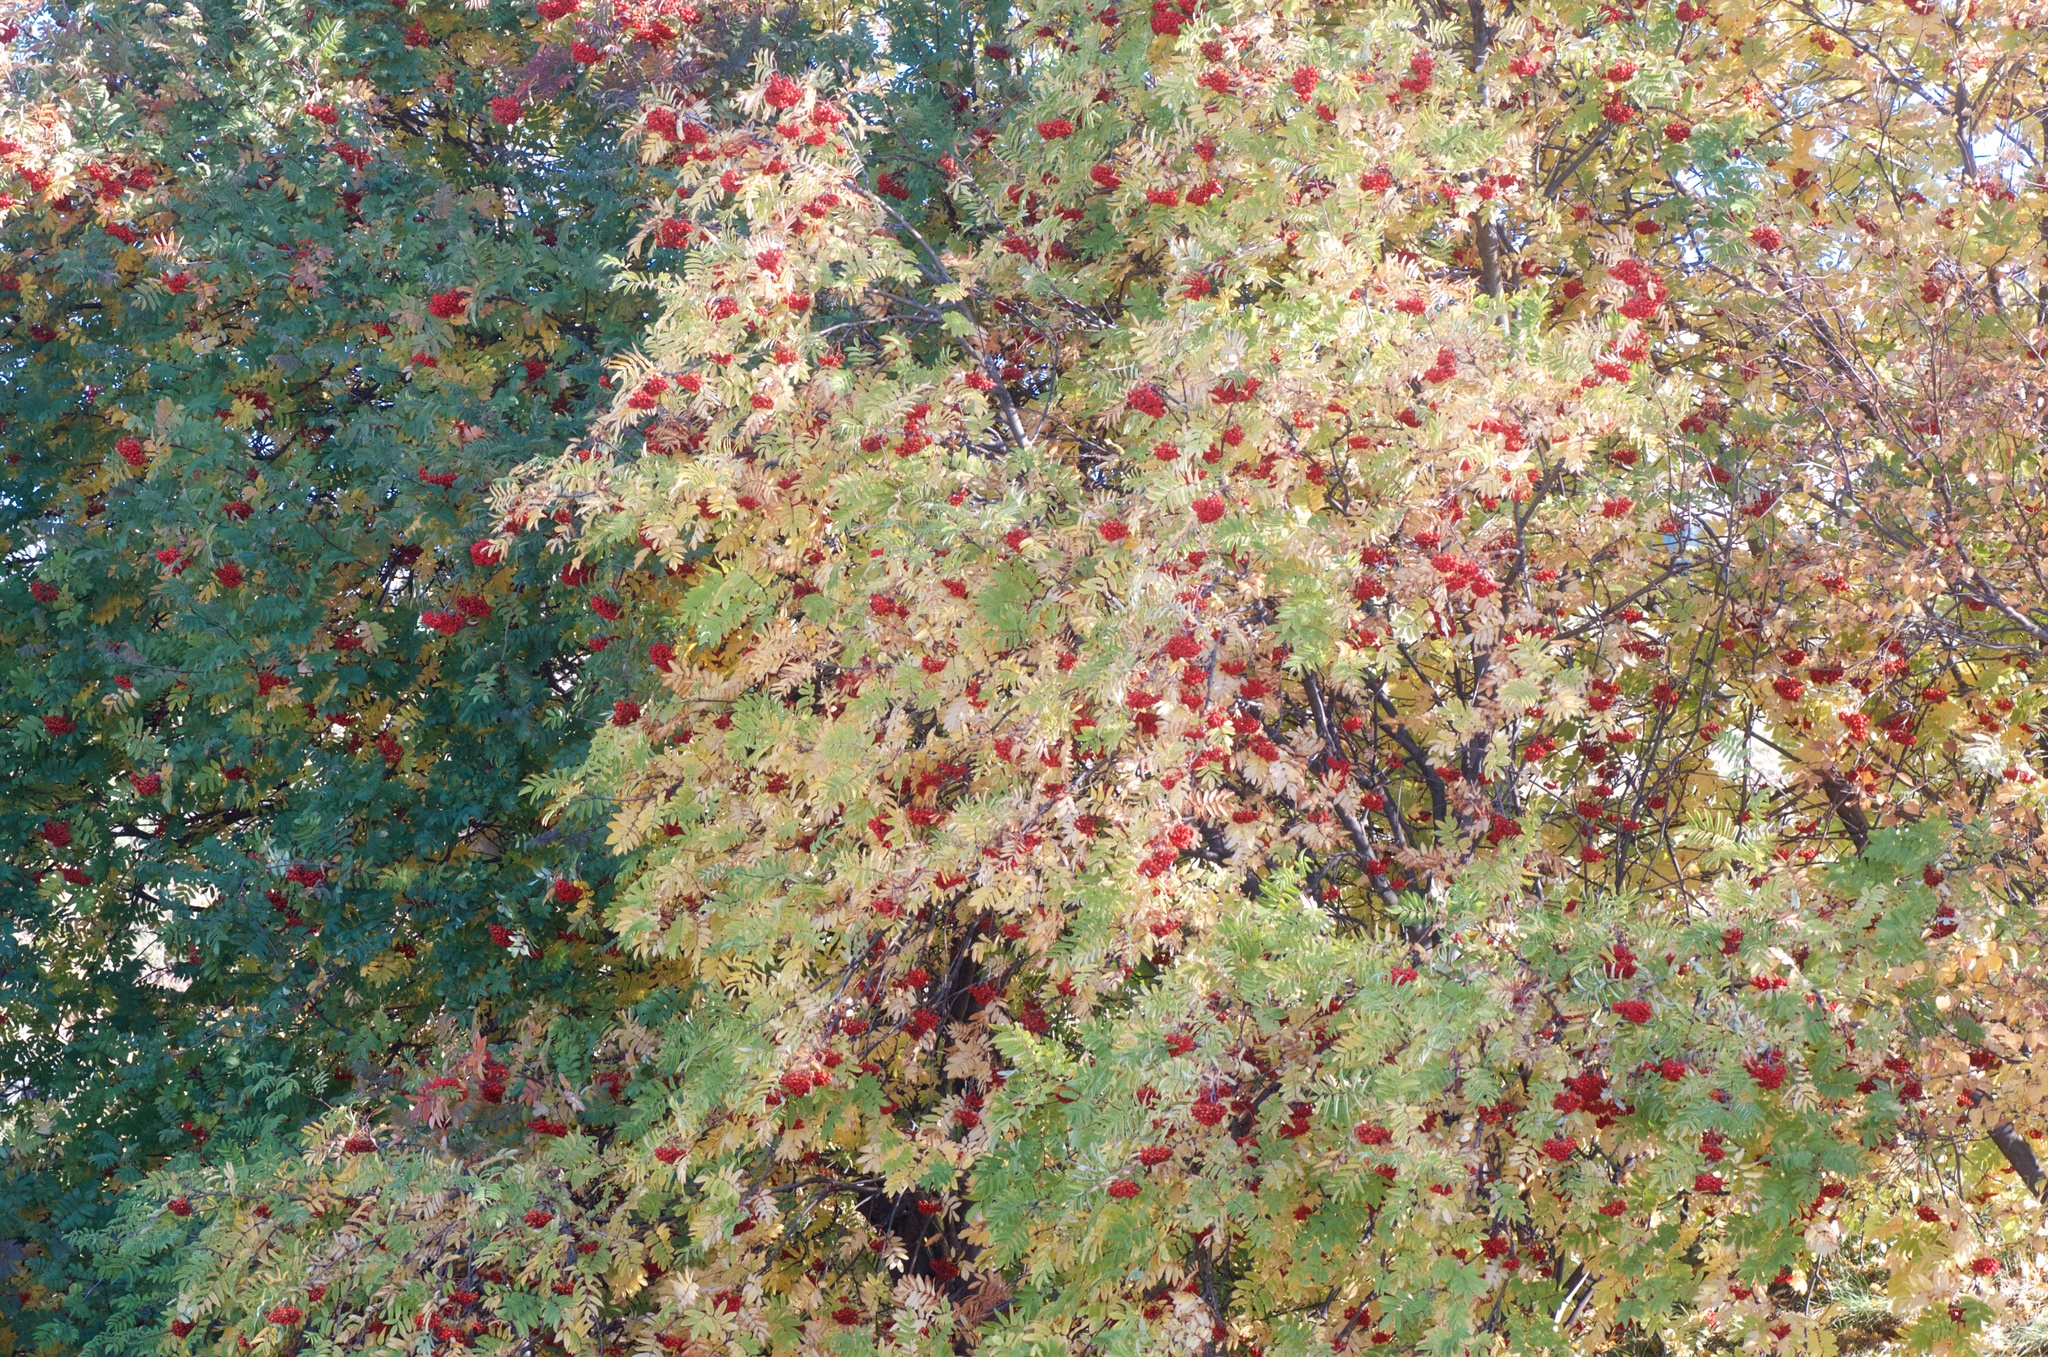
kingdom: Plantae
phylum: Tracheophyta
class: Magnoliopsida
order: Rosales
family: Rosaceae
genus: Sorbus
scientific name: Sorbus aucuparia
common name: Rowan
